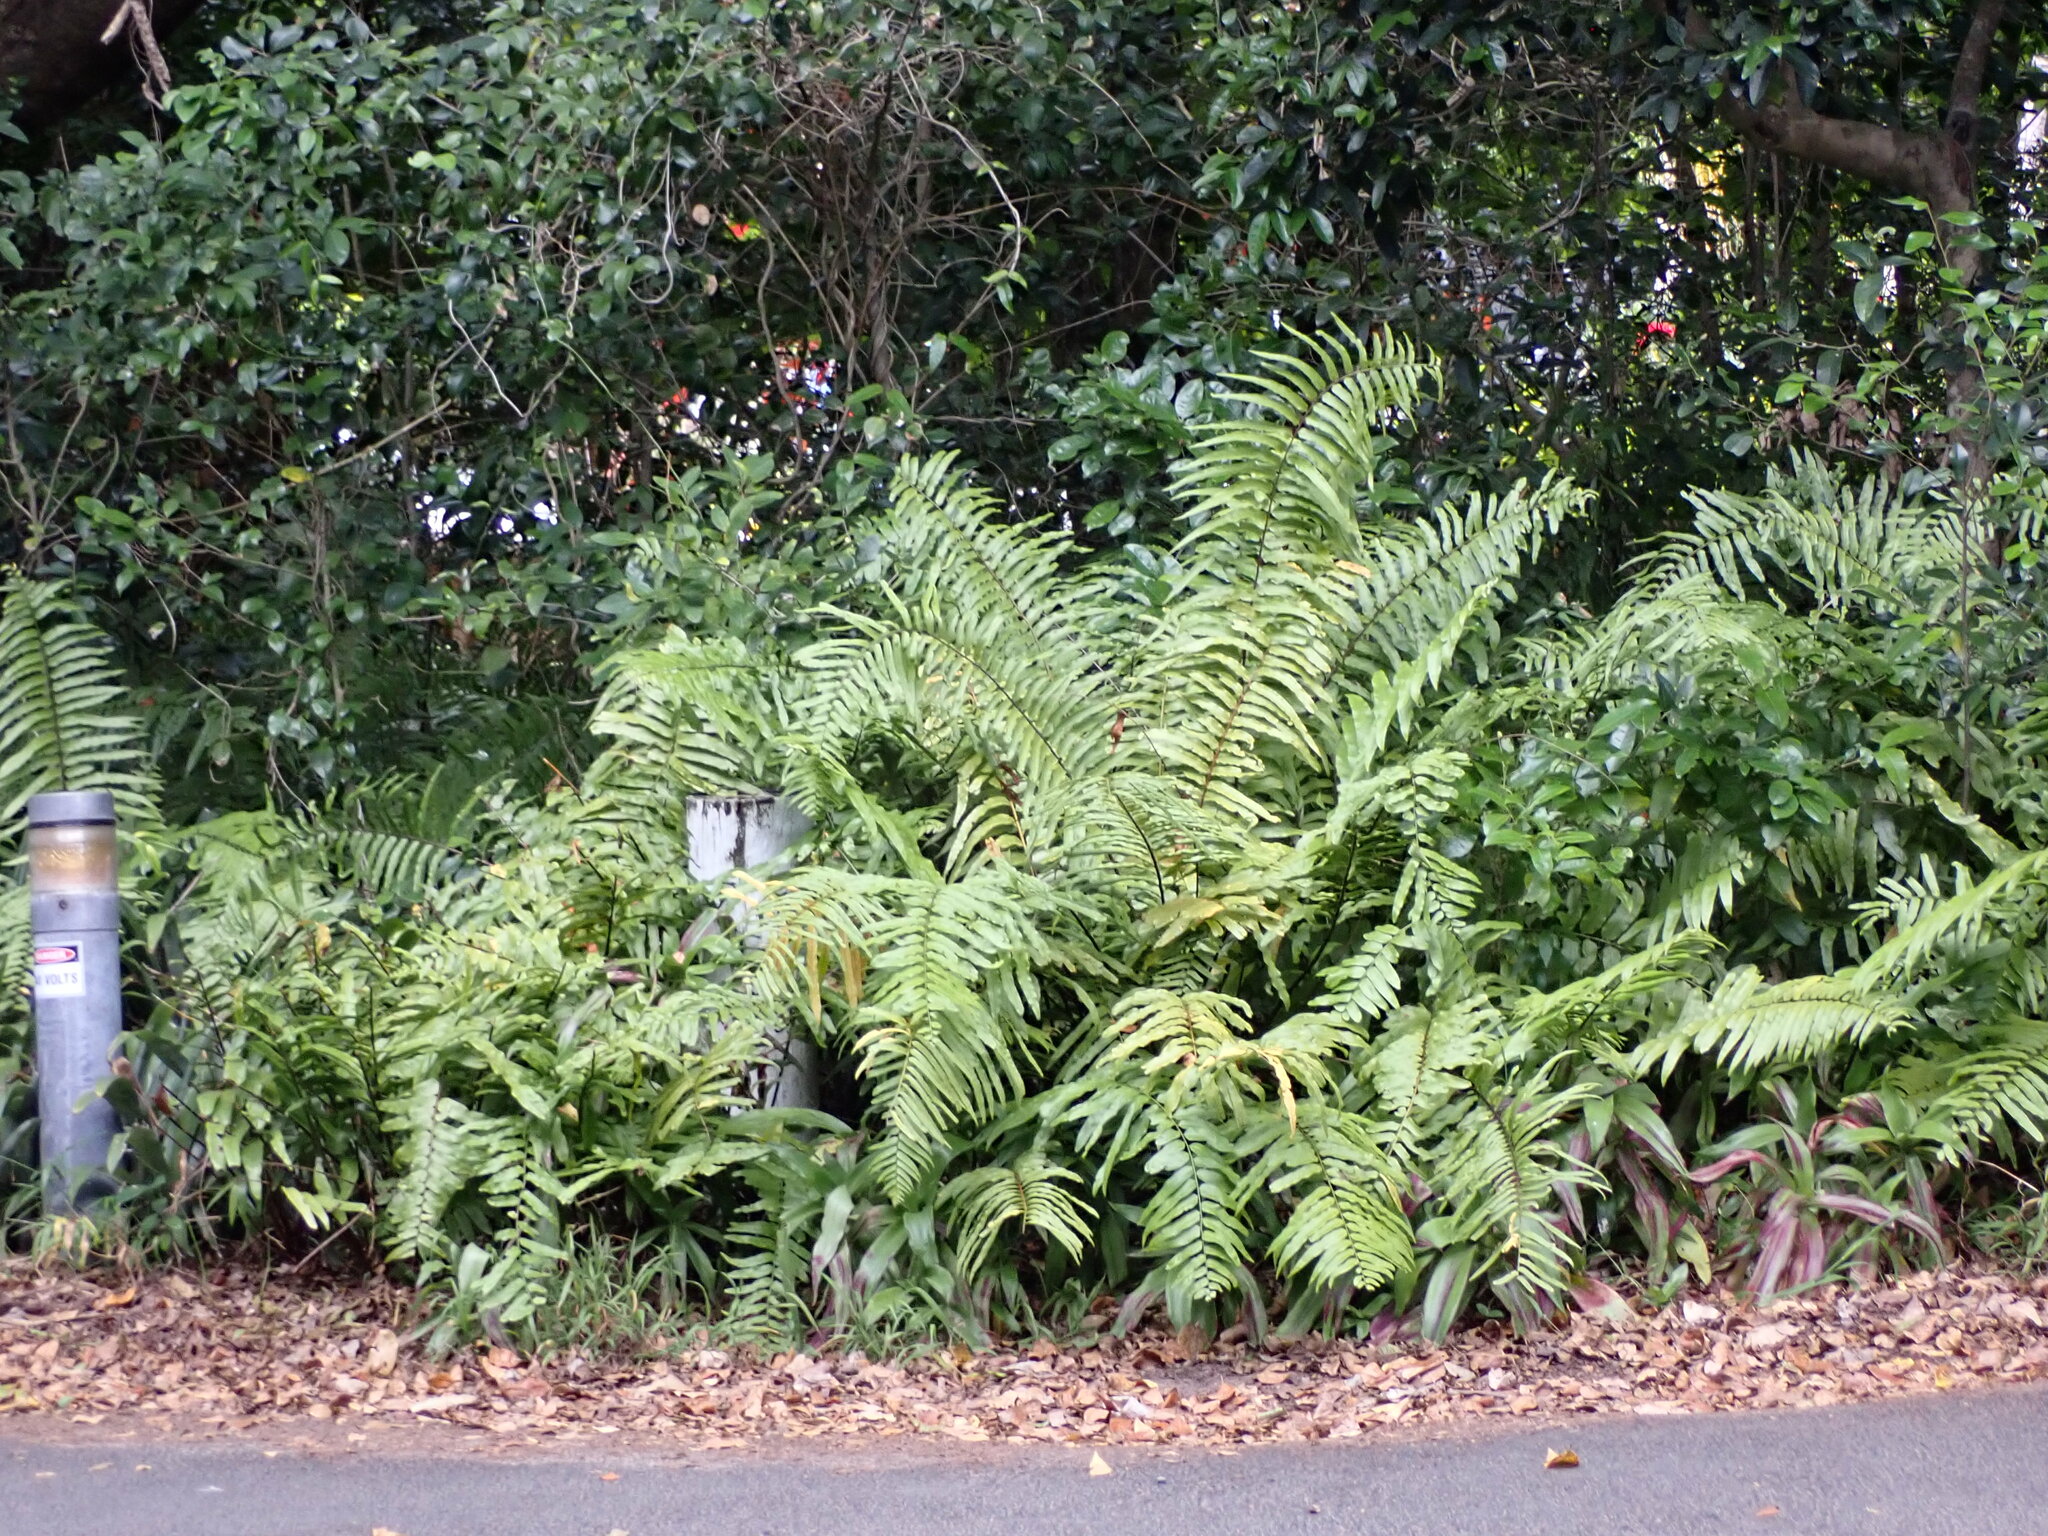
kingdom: Plantae
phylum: Tracheophyta
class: Polypodiopsida
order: Polypodiales
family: Nephrolepidaceae
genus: Nephrolepis
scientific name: Nephrolepis biserrata
